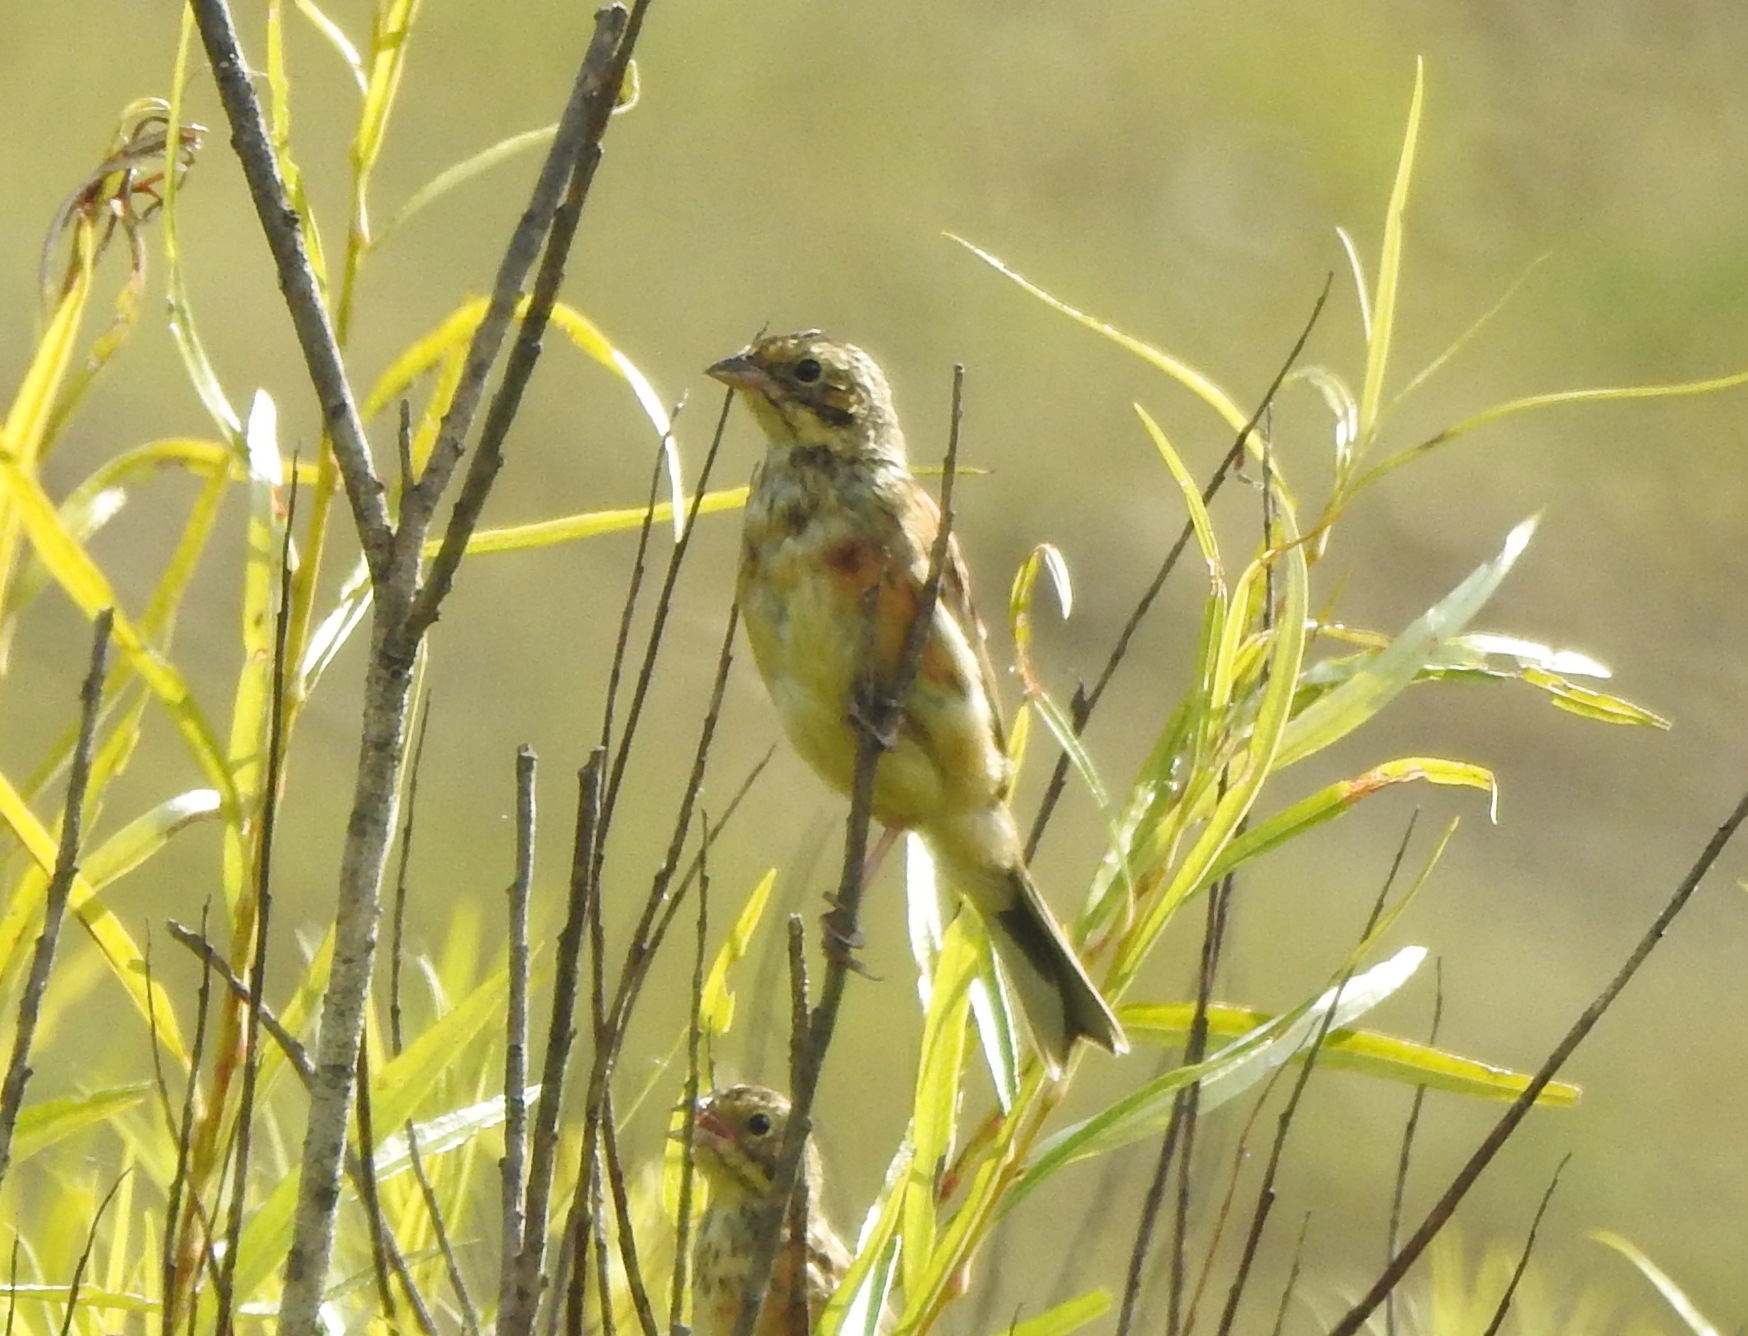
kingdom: Animalia
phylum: Chordata
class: Aves
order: Passeriformes
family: Emberizidae
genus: Emberiza
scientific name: Emberiza fucata
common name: Chestnut-eared bunting
